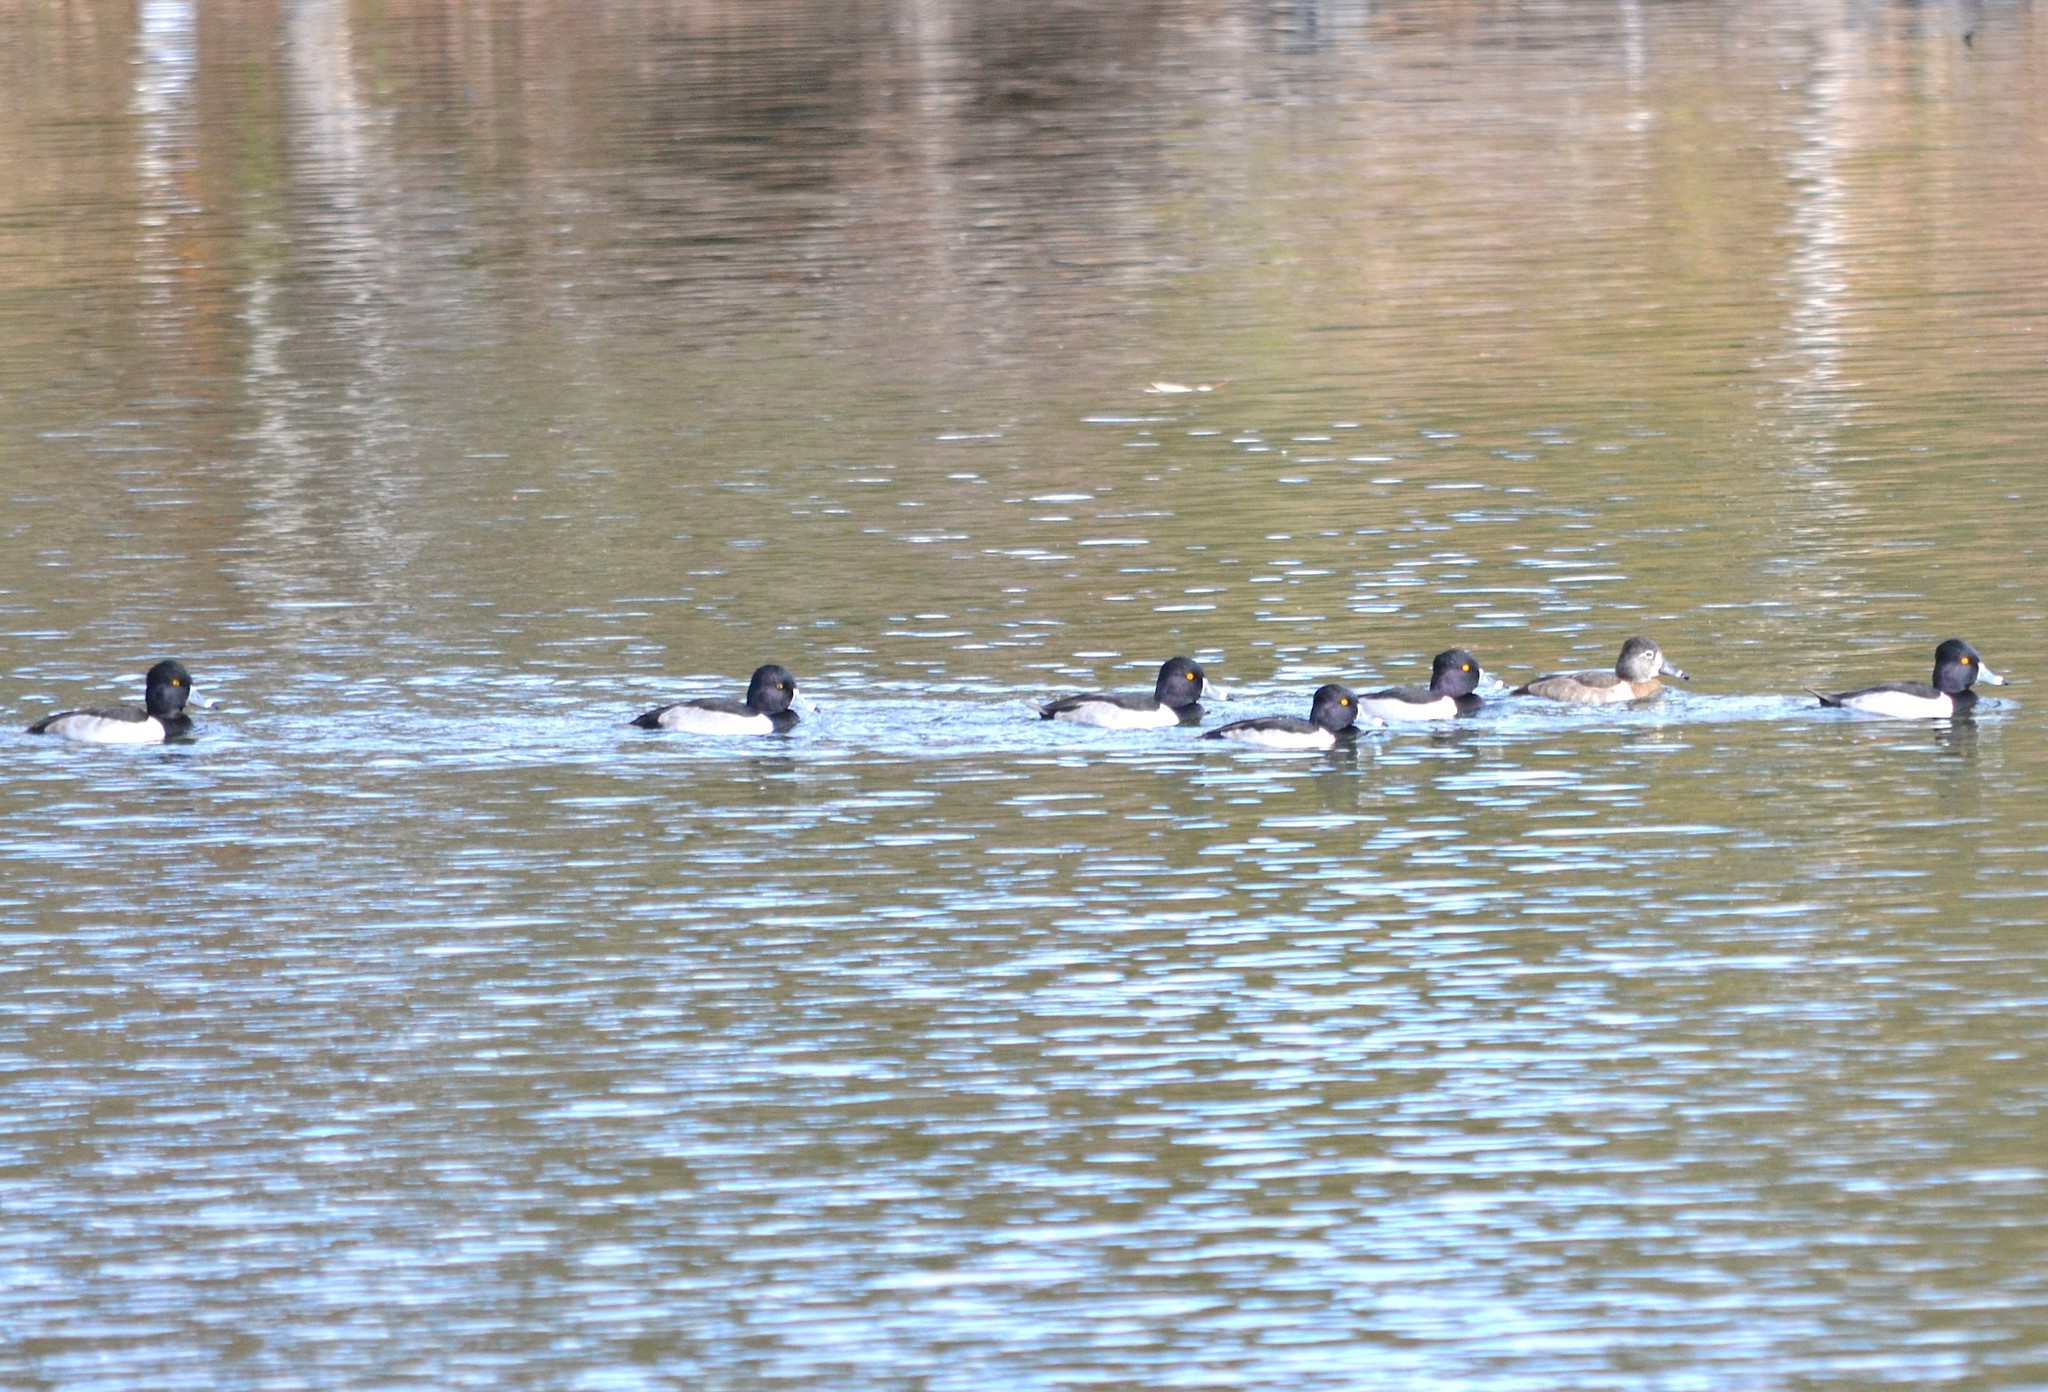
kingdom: Animalia
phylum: Chordata
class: Aves
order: Anseriformes
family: Anatidae
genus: Aythya
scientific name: Aythya collaris
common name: Ring-necked duck
